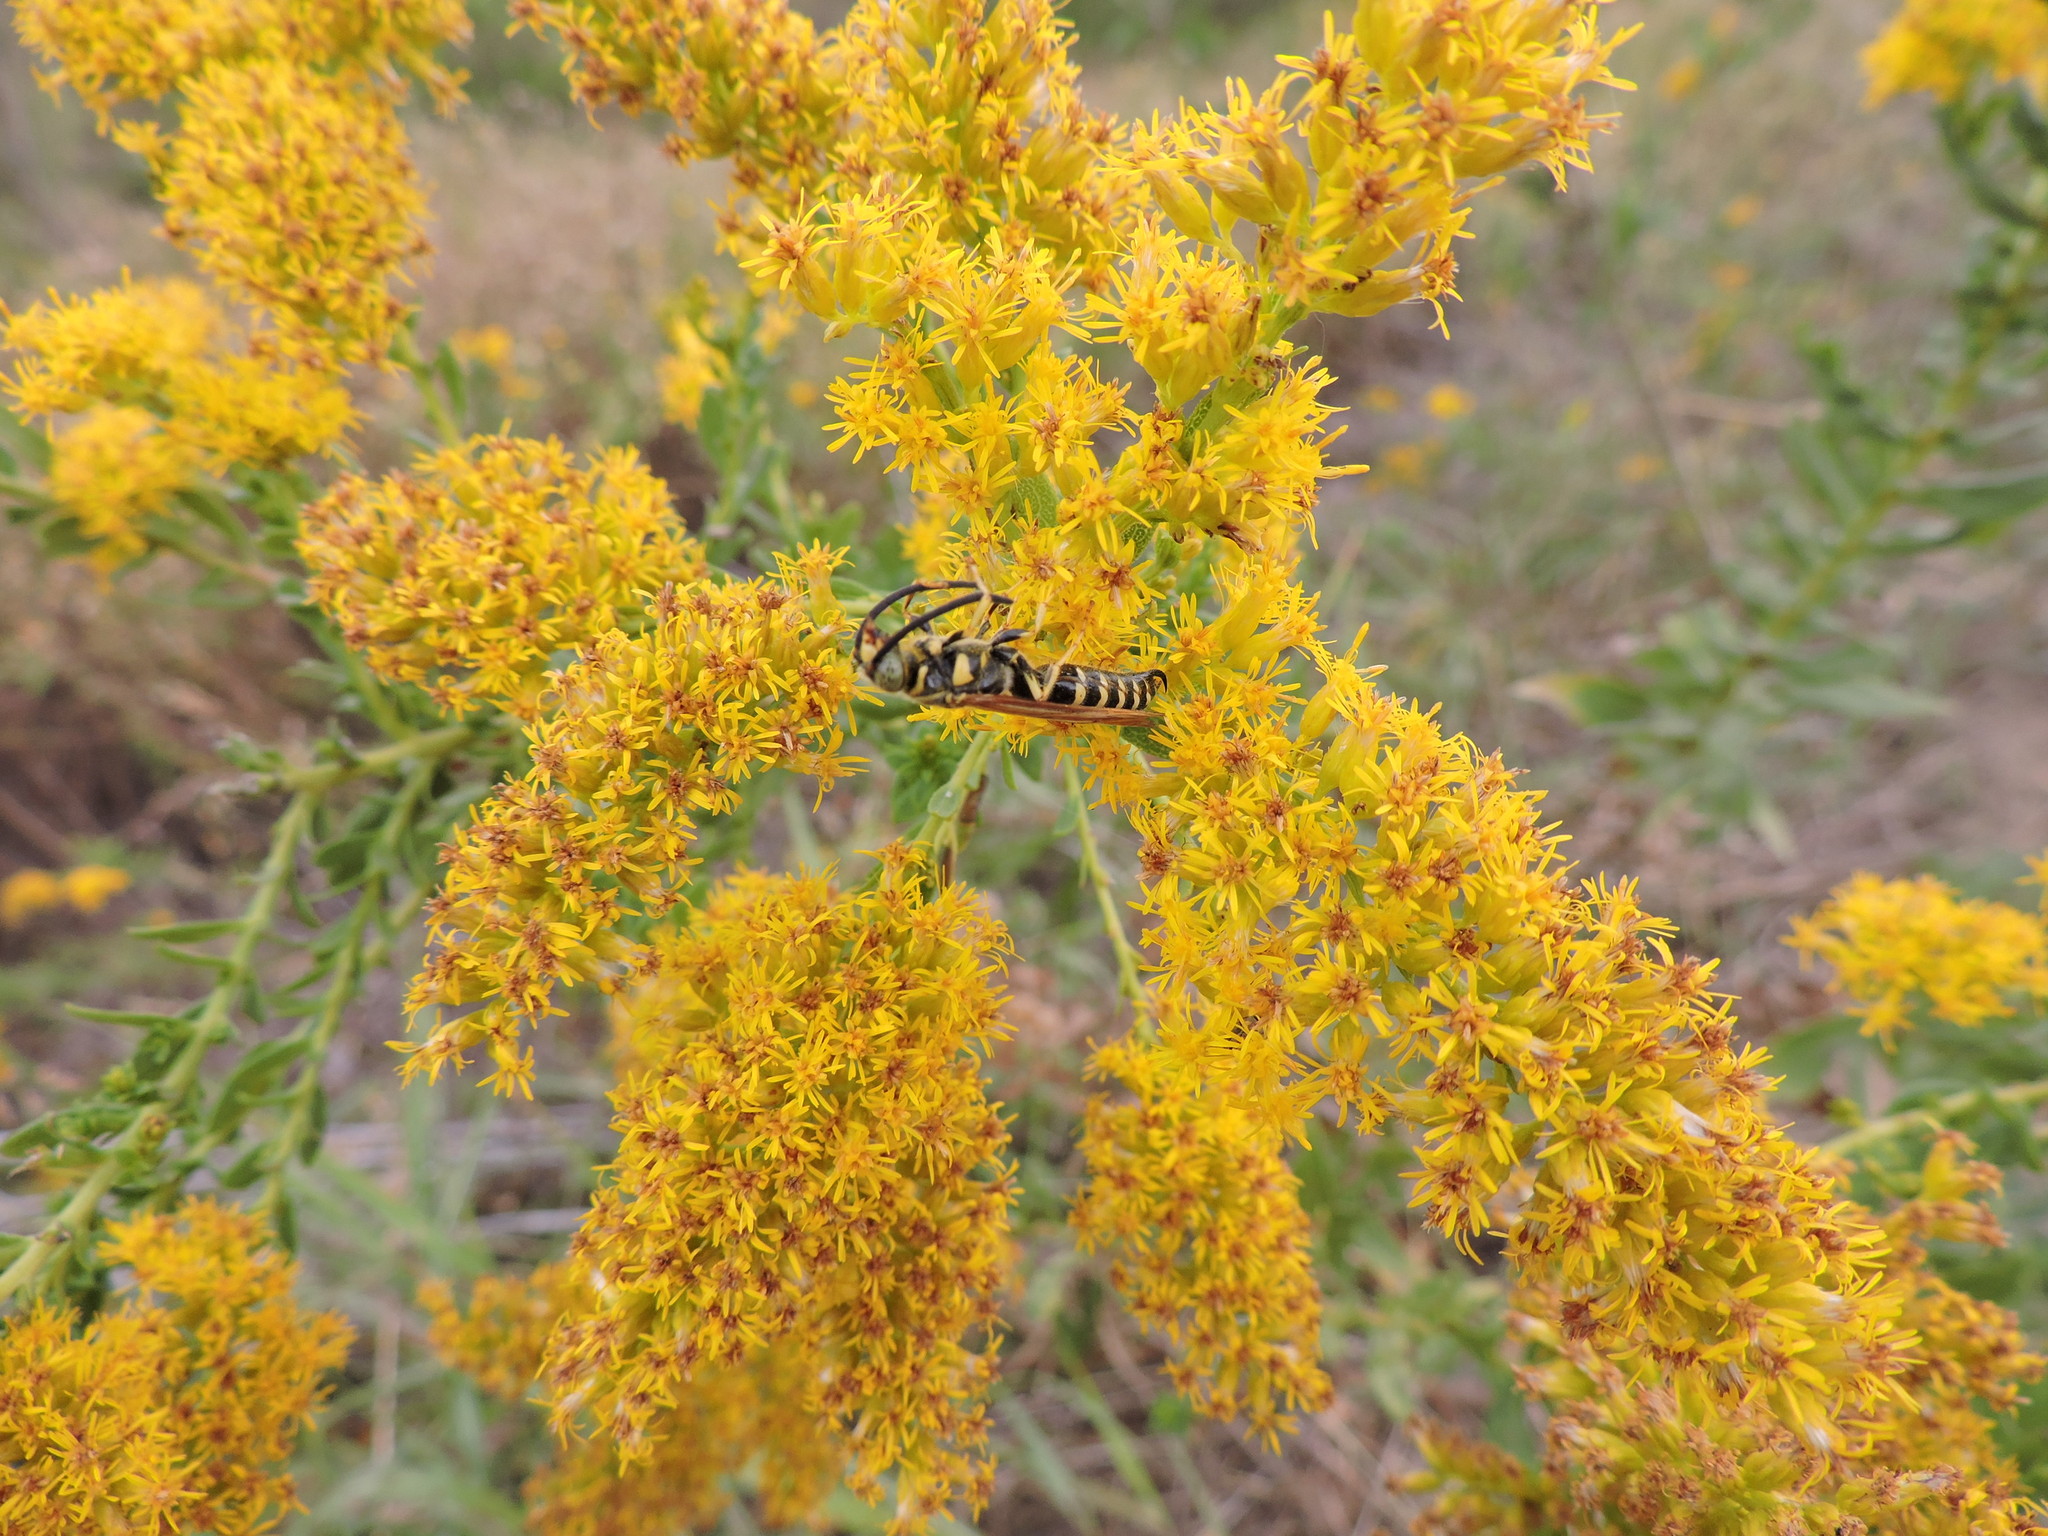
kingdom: Animalia
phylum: Arthropoda
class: Insecta
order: Hymenoptera
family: Tiphiidae
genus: Myzinum
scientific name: Myzinum quinquecinctum
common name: Five-banded thynnid wasp
